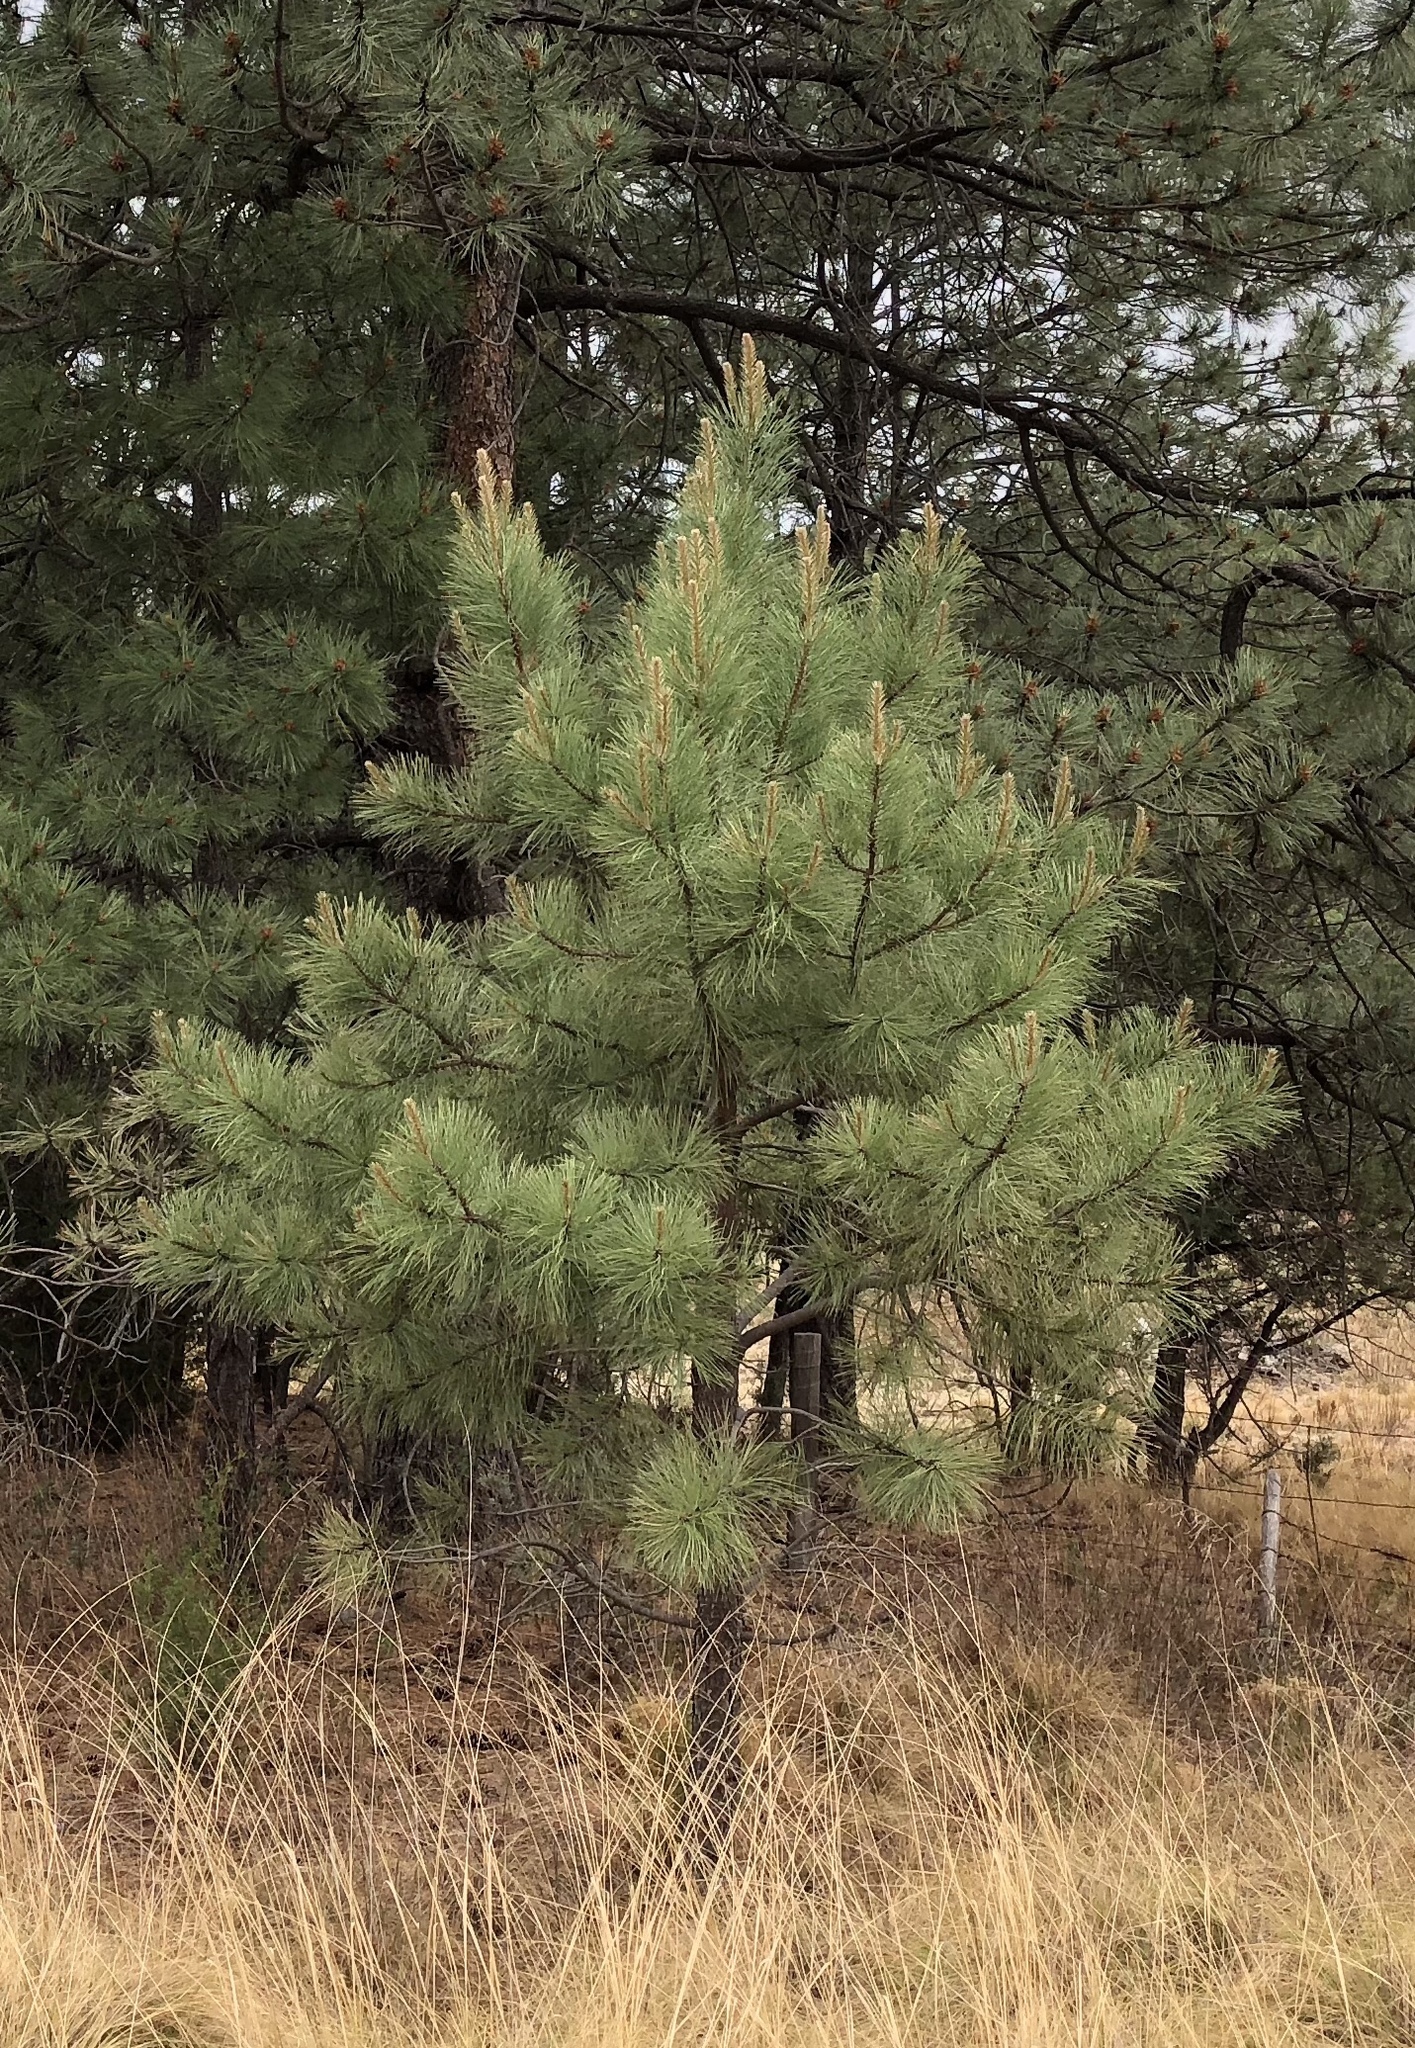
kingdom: Plantae
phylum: Tracheophyta
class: Pinopsida
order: Pinales
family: Pinaceae
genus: Pinus
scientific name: Pinus ponderosa
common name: Western yellow-pine
